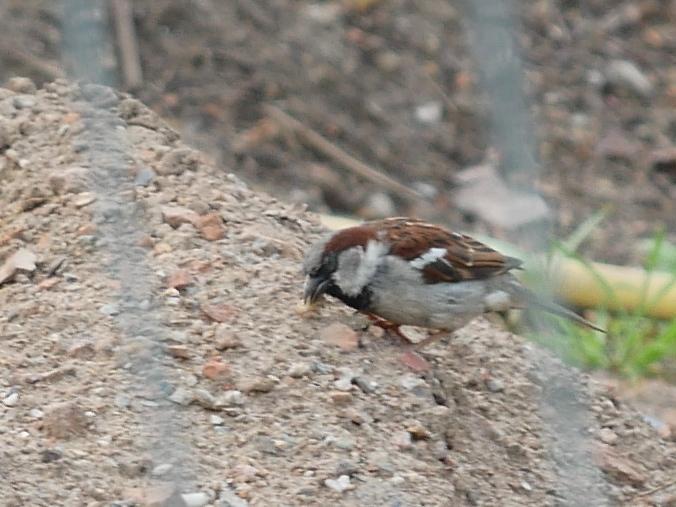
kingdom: Animalia
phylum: Chordata
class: Aves
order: Passeriformes
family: Passeridae
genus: Passer
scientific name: Passer domesticus
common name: House sparrow
